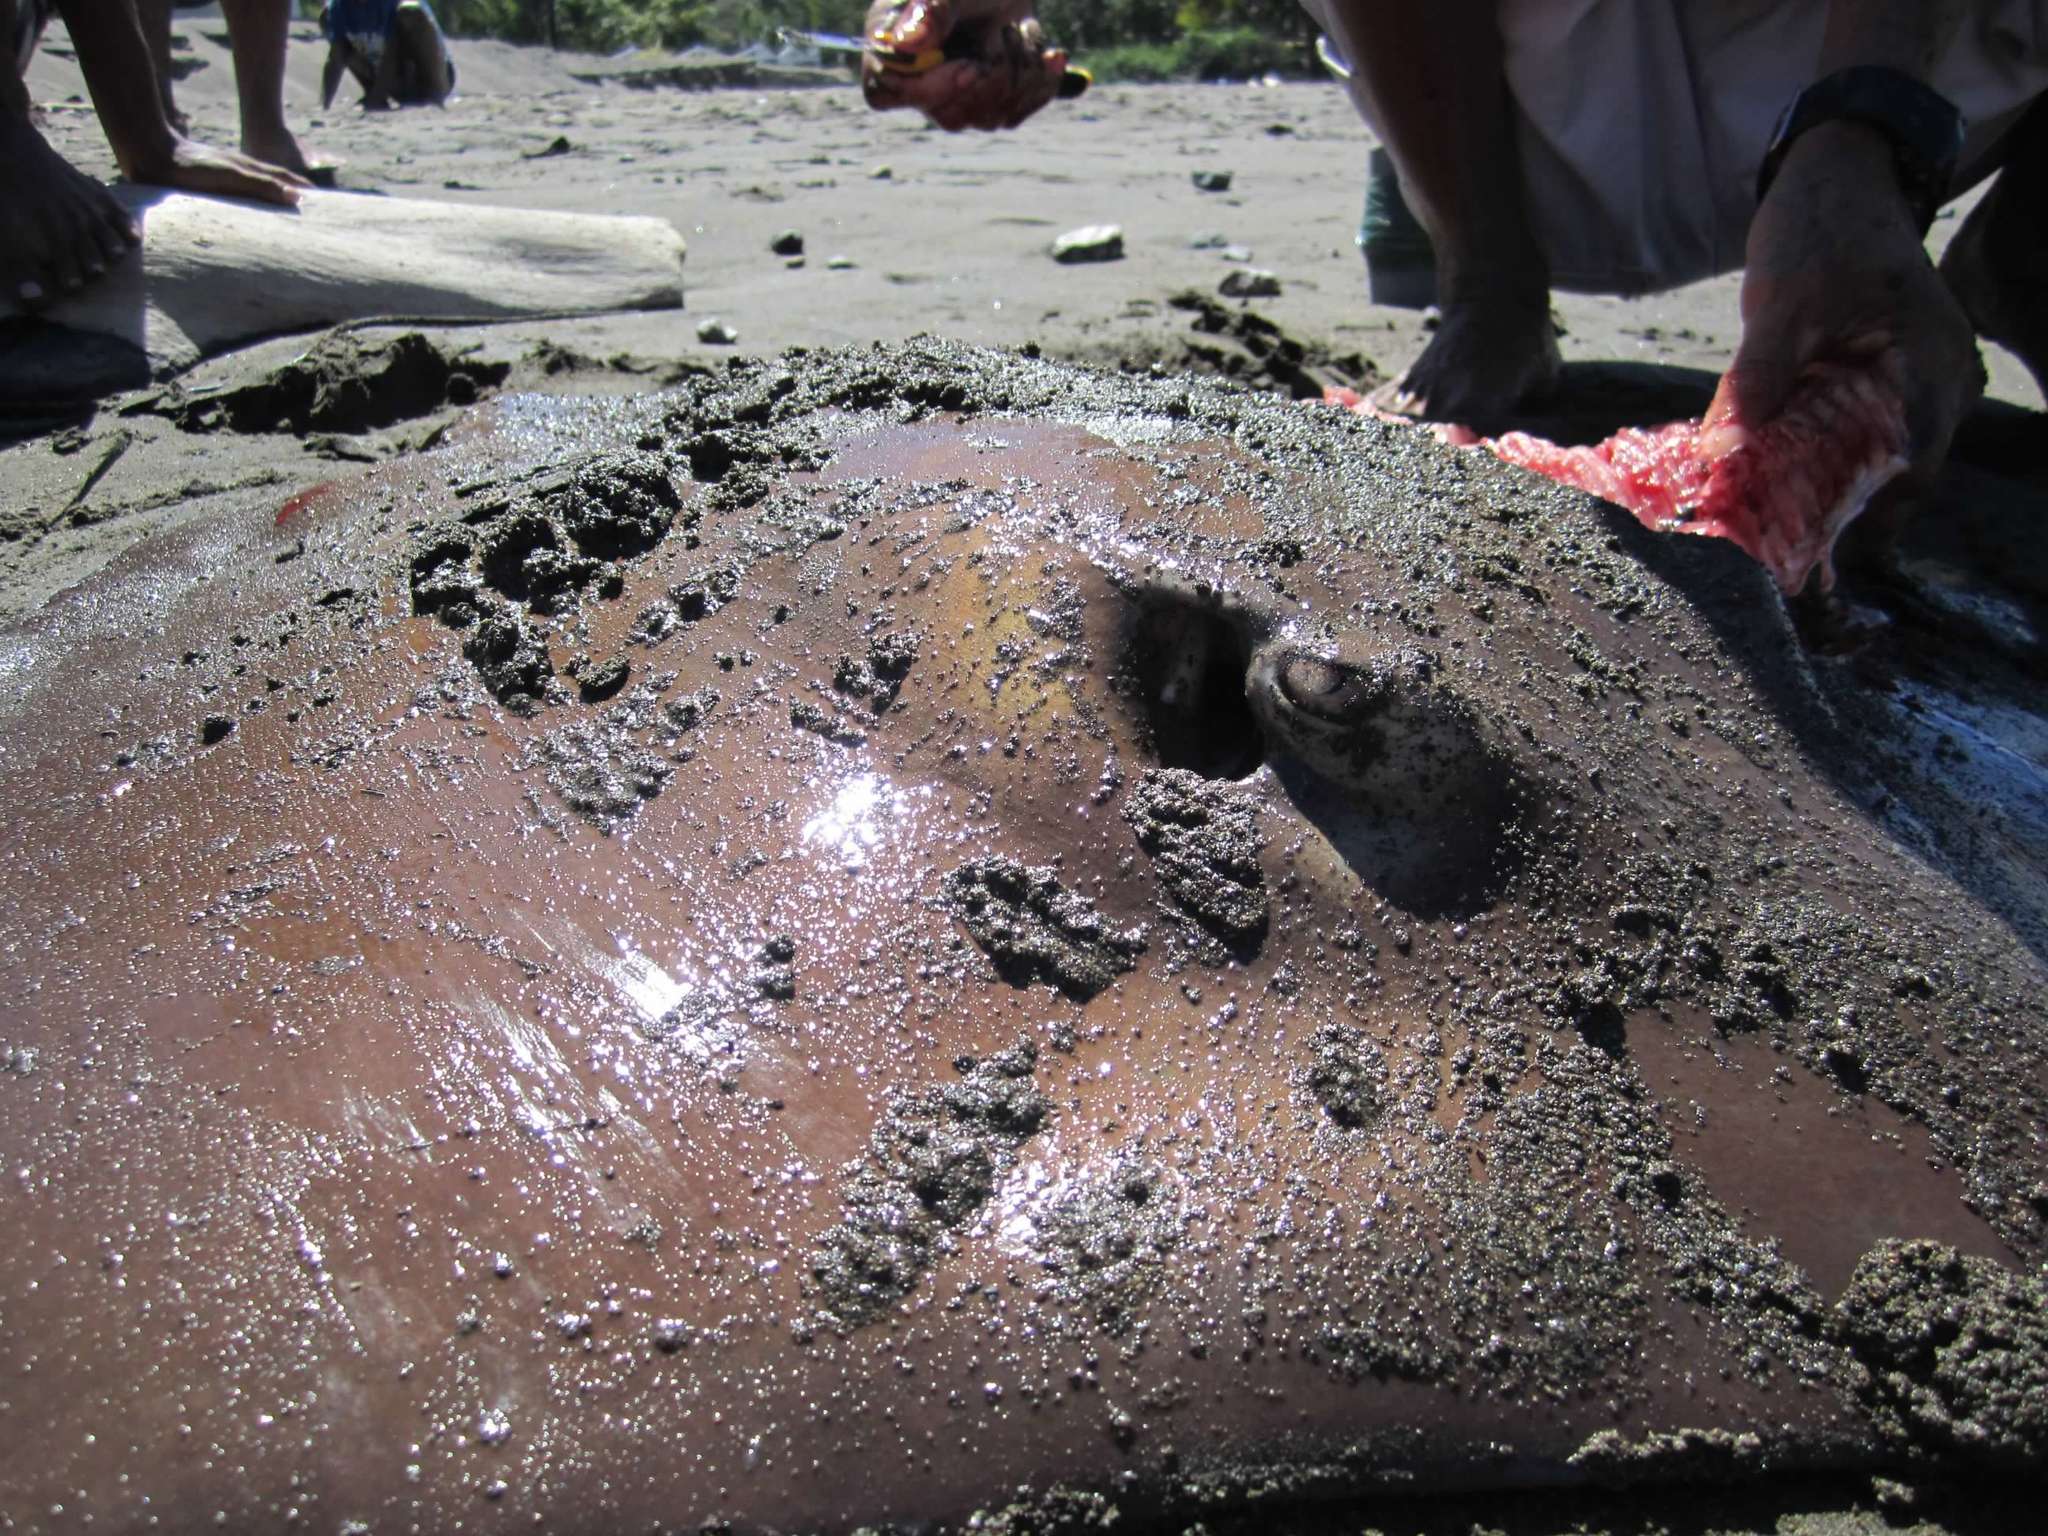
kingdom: Animalia
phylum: Chordata
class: Elasmobranchii
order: Myliobatiformes
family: Dasyatidae
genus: Hypanus
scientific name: Hypanus longus
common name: Longtail stingray
